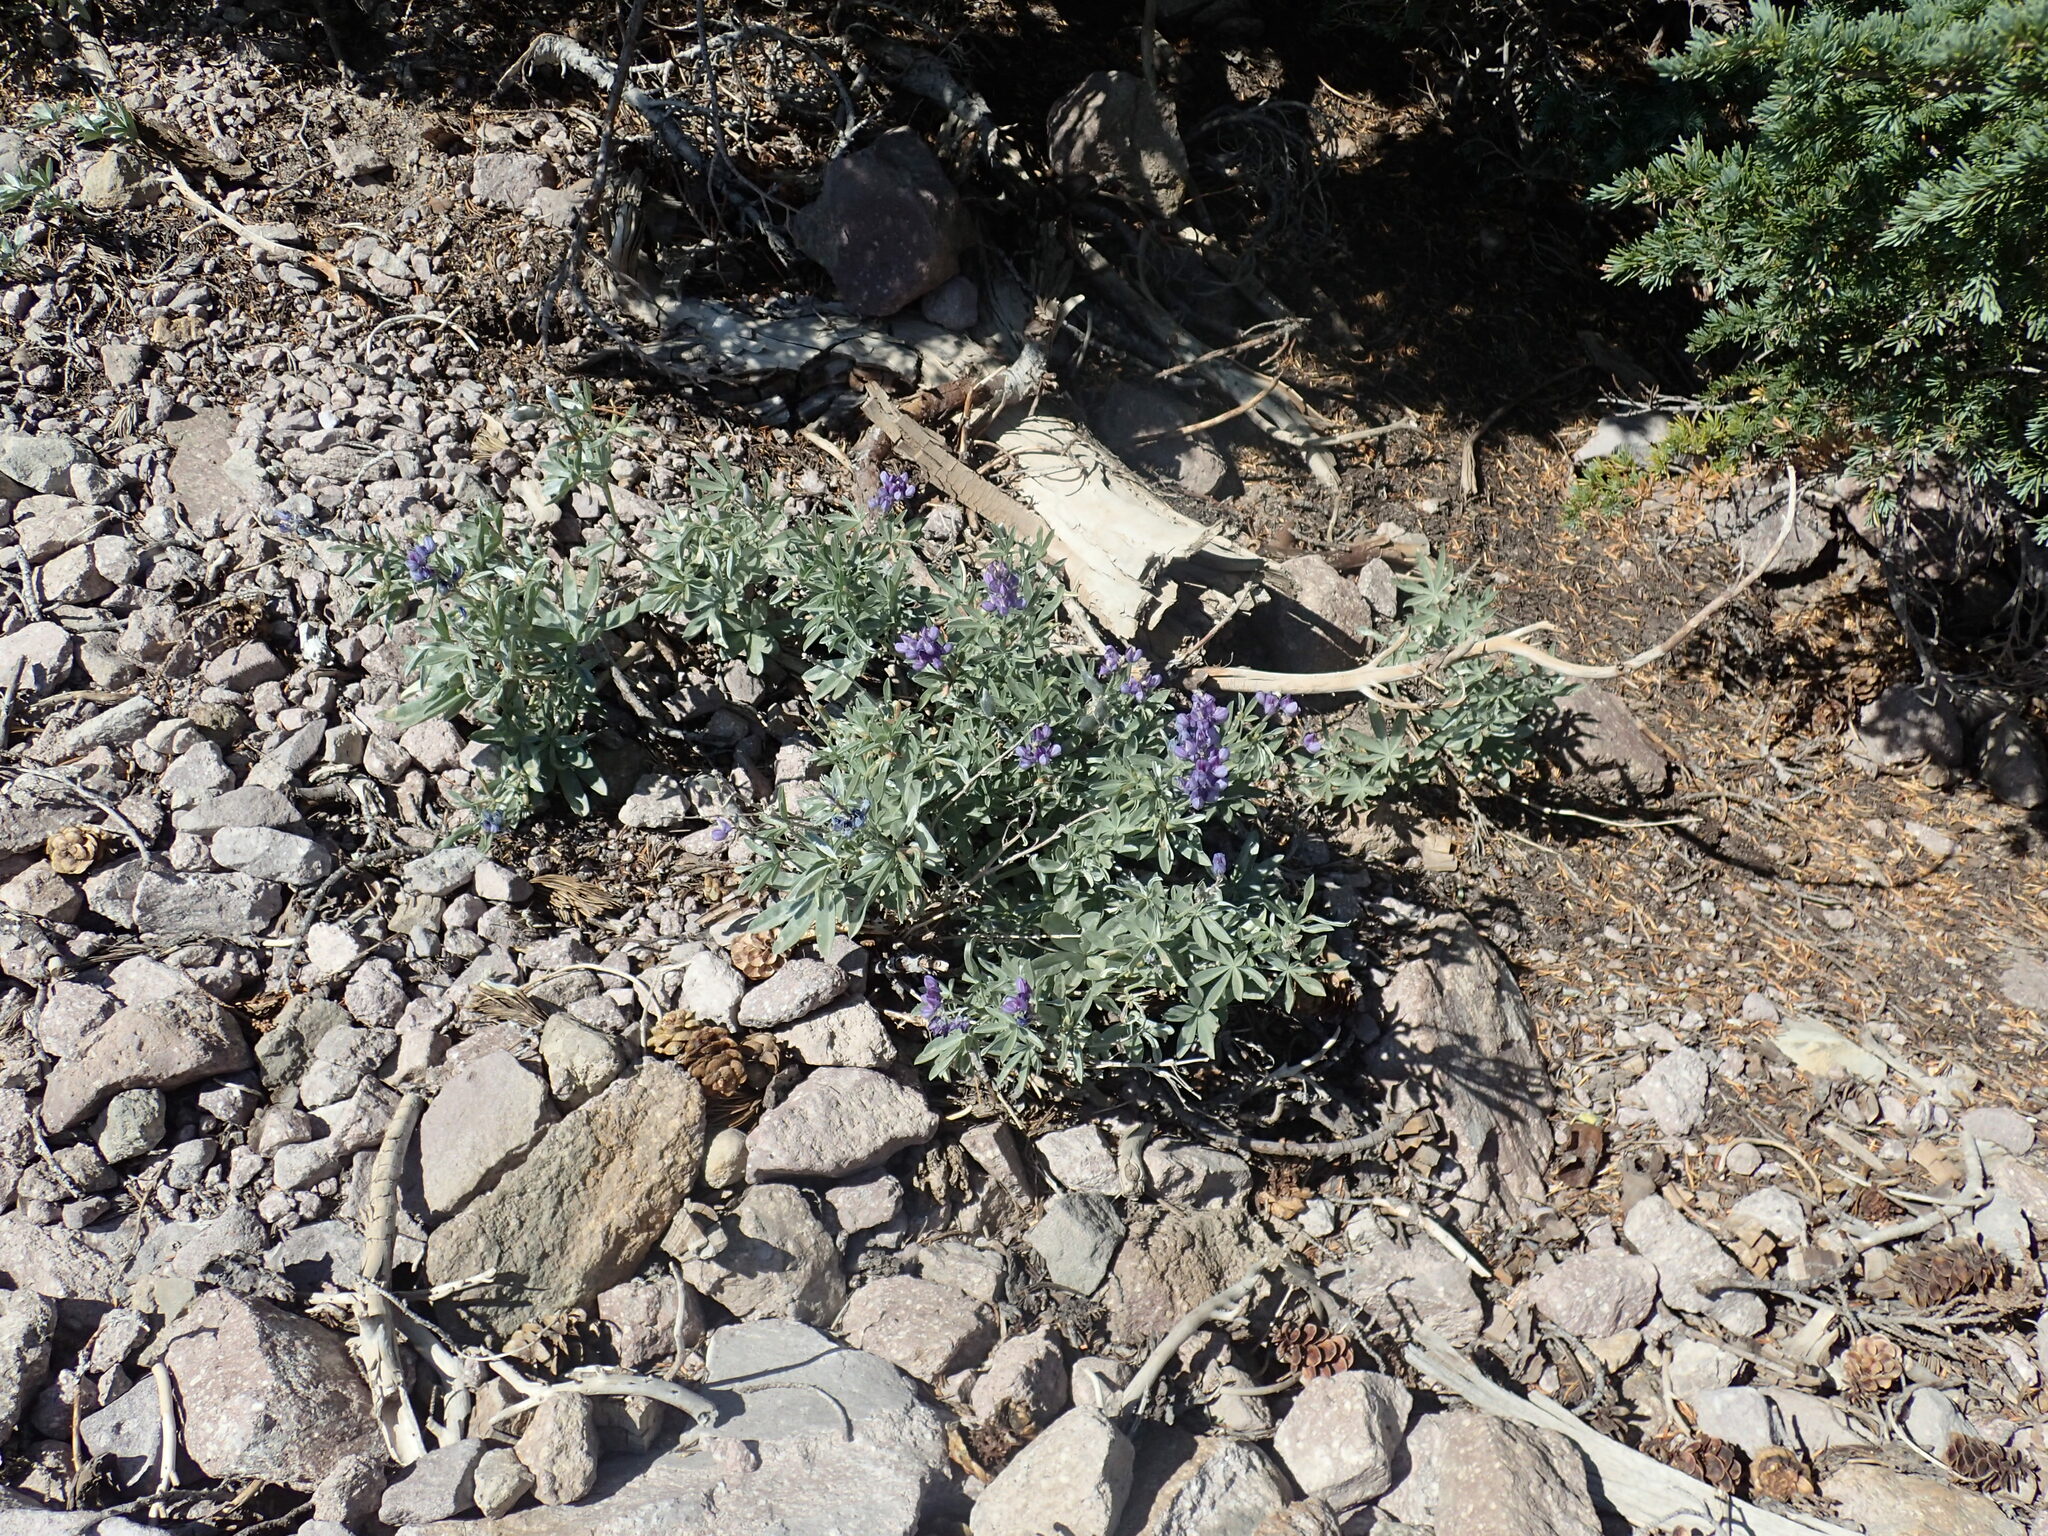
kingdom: Plantae
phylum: Tracheophyta
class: Magnoliopsida
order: Fabales
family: Fabaceae
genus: Lupinus
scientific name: Lupinus obtusilobus
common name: Blunt-lobe lupine
